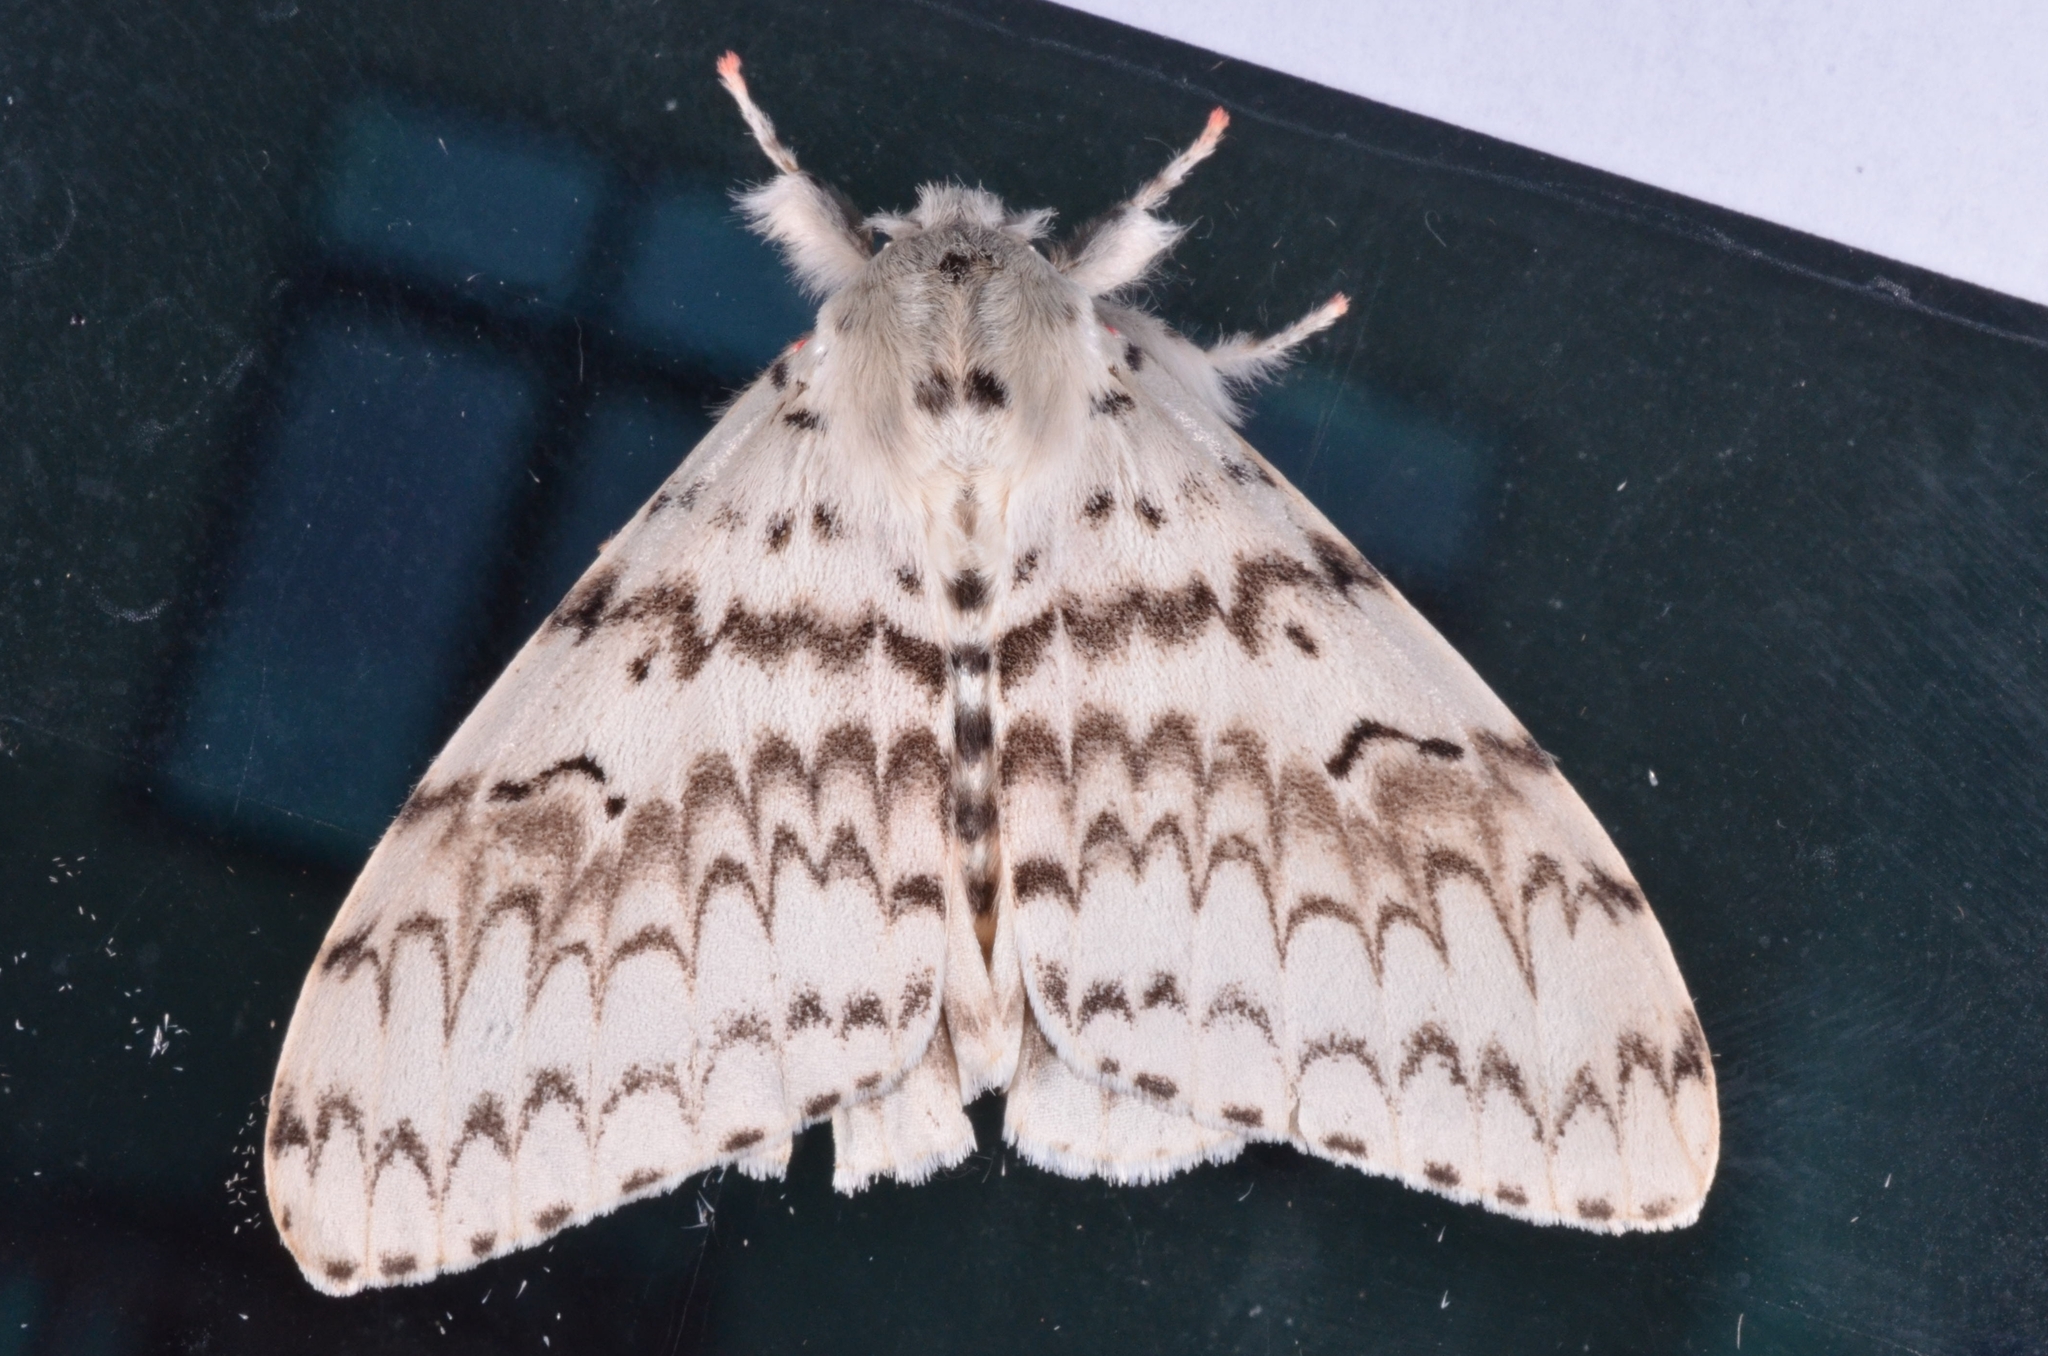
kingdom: Animalia
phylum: Arthropoda
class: Insecta
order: Lepidoptera
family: Erebidae
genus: Lymantria
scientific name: Lymantria brotea
